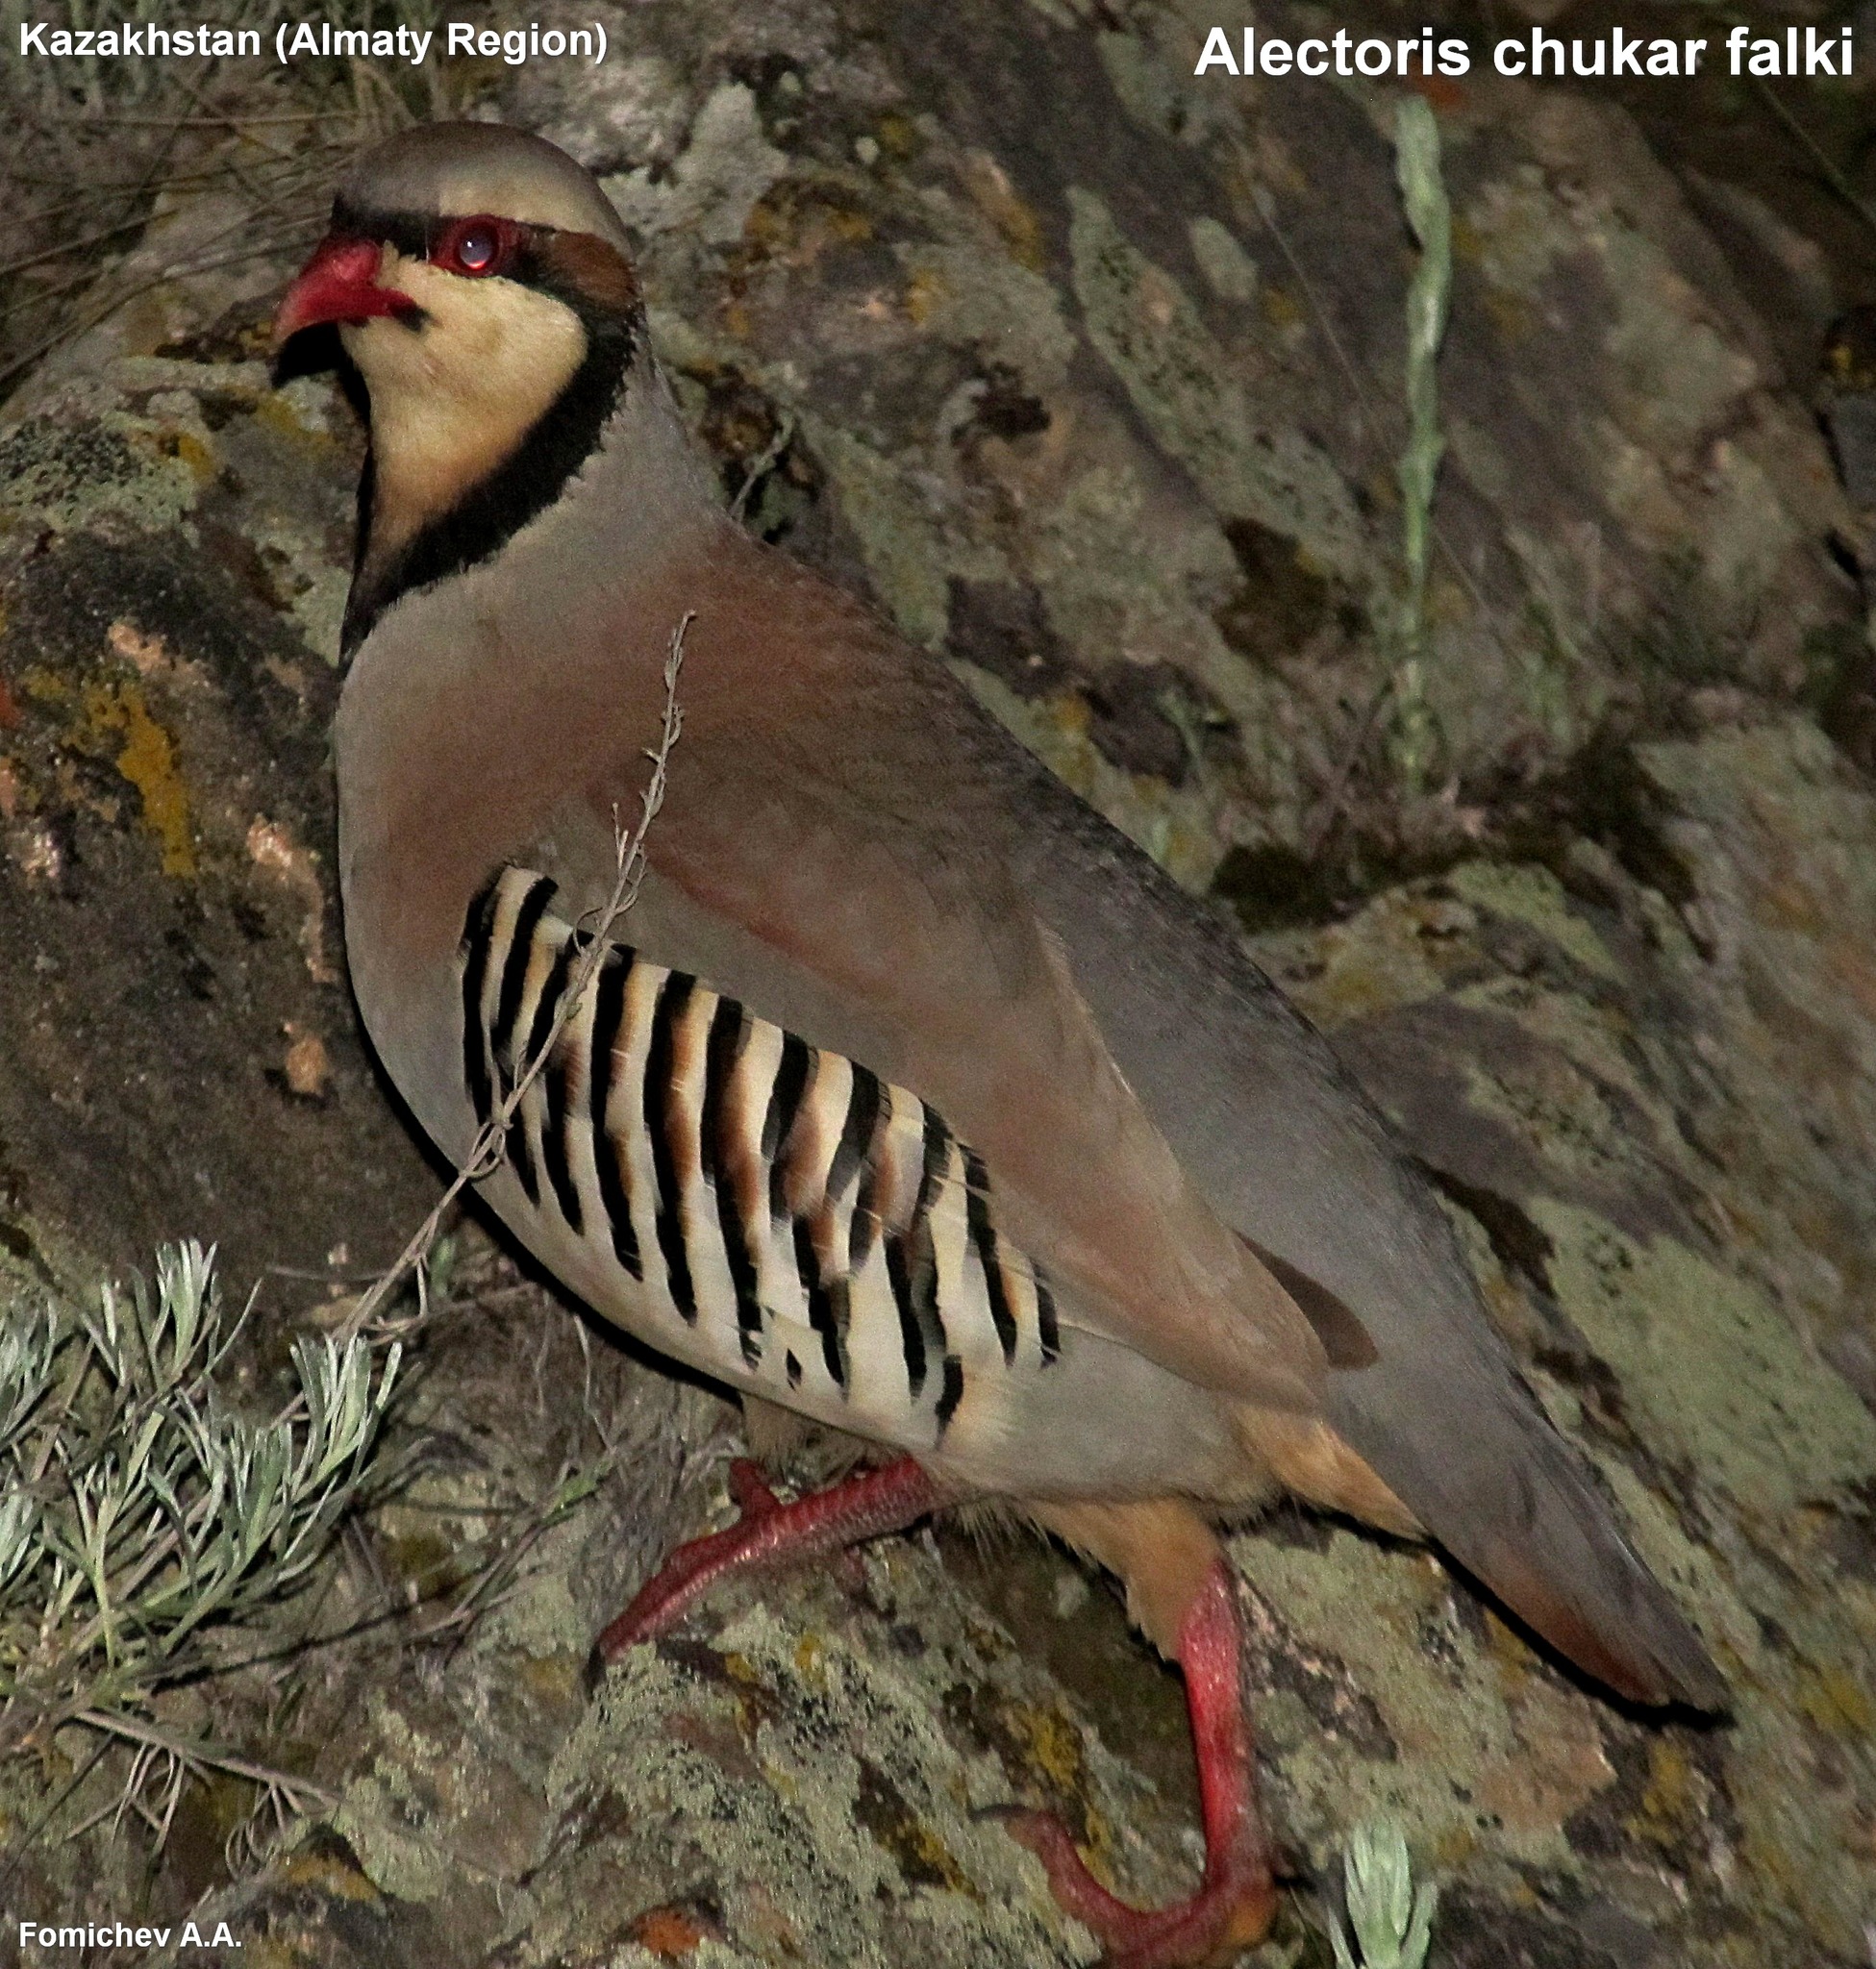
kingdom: Animalia
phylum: Chordata
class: Aves
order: Galliformes
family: Phasianidae
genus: Alectoris
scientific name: Alectoris chukar
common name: Chukar
